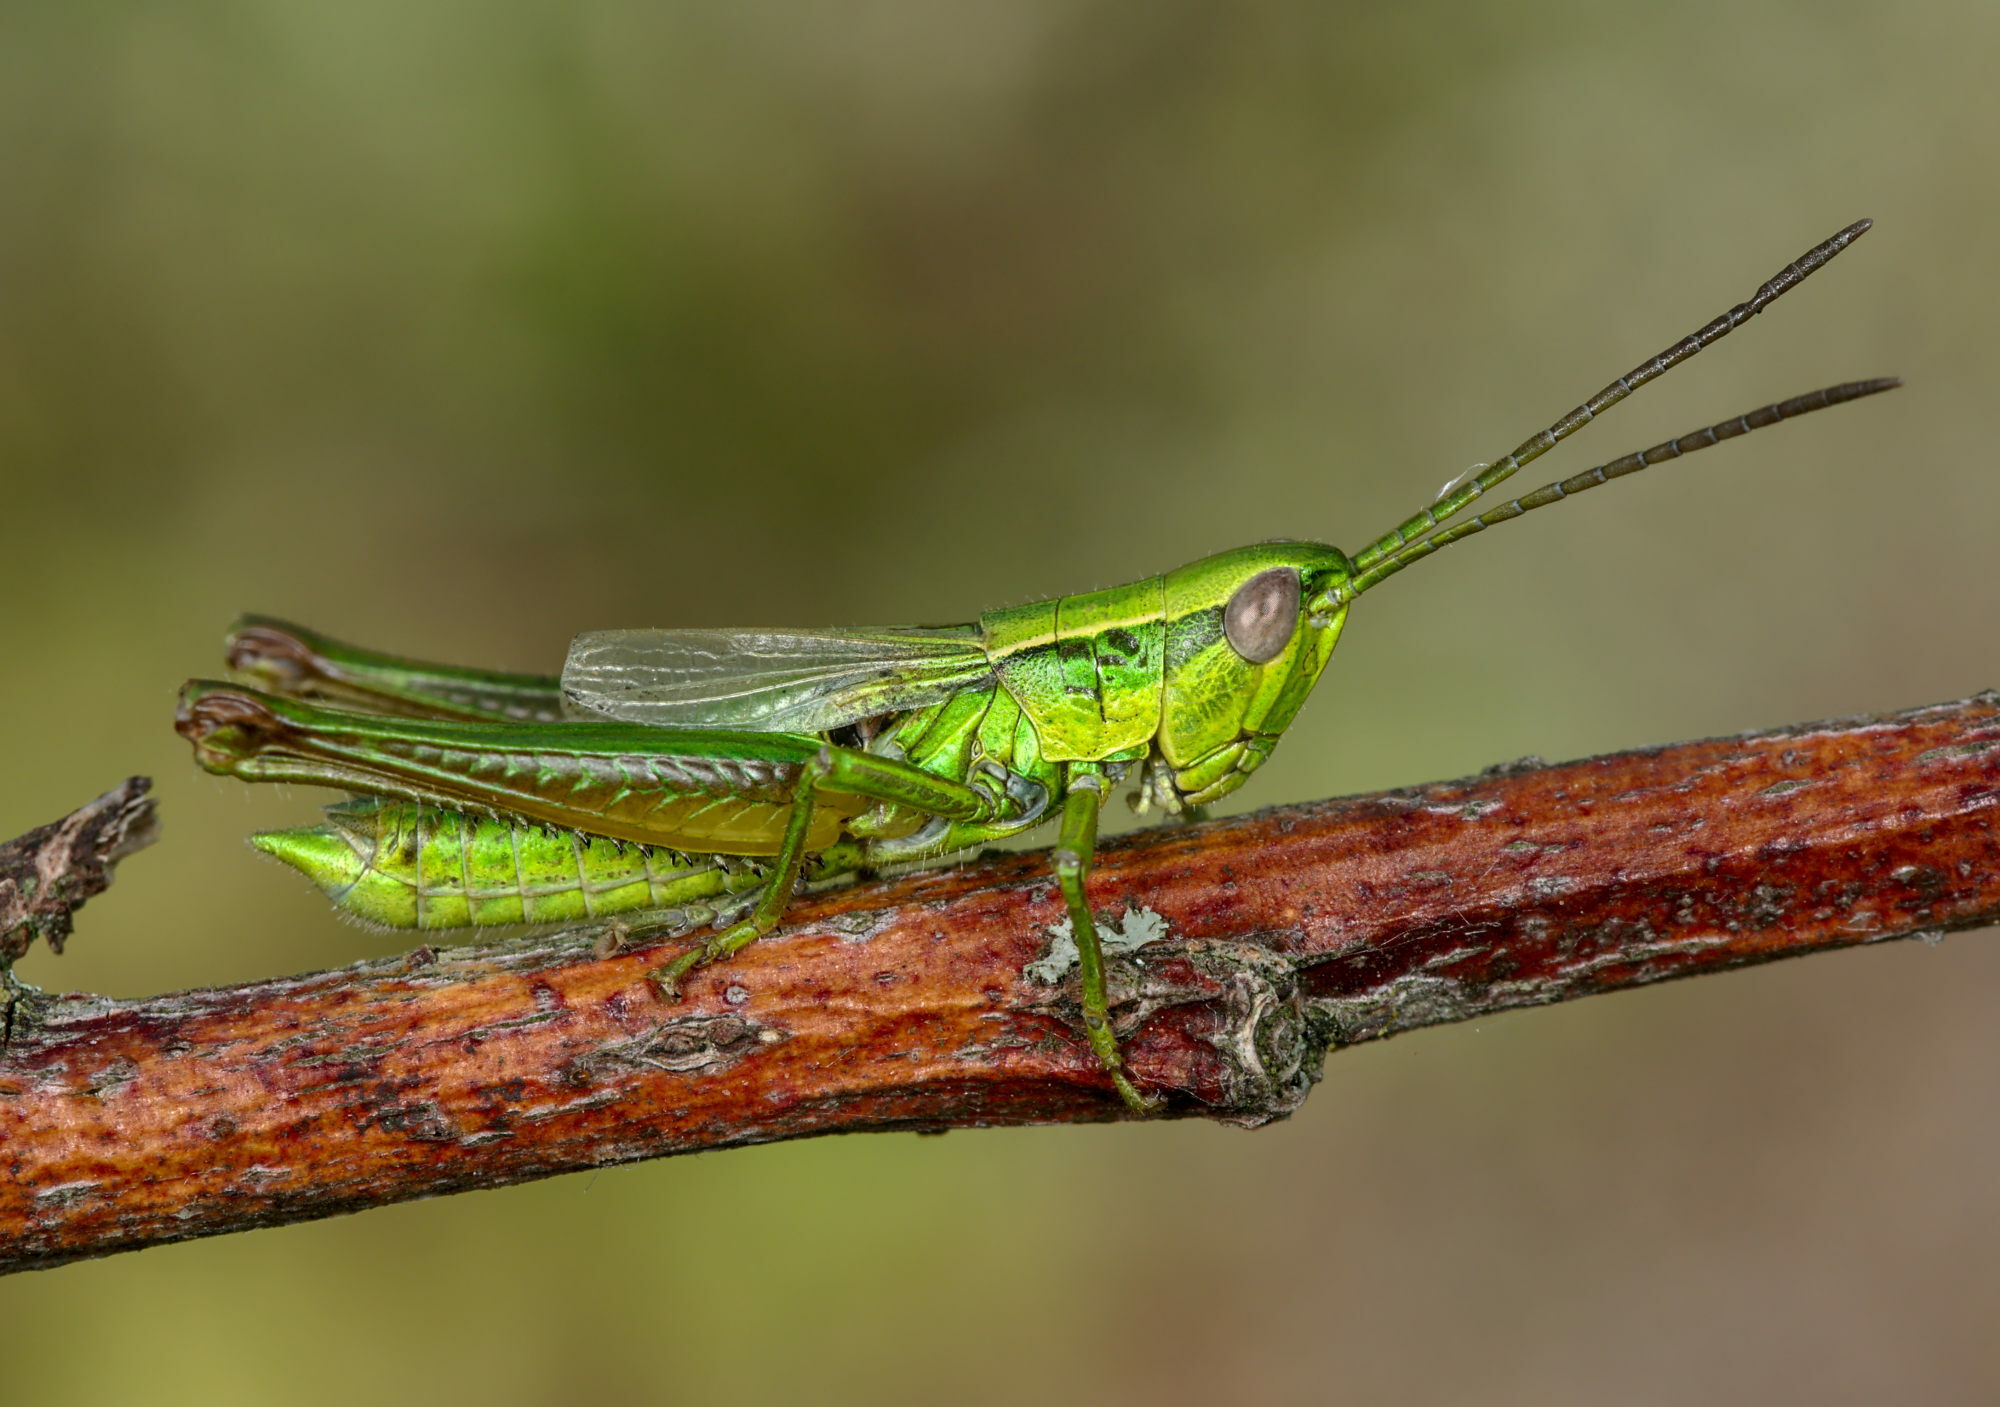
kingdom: Animalia
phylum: Arthropoda
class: Insecta
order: Orthoptera
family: Acrididae
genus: Euthystira
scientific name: Euthystira brachyptera
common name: Small gold grasshopper
